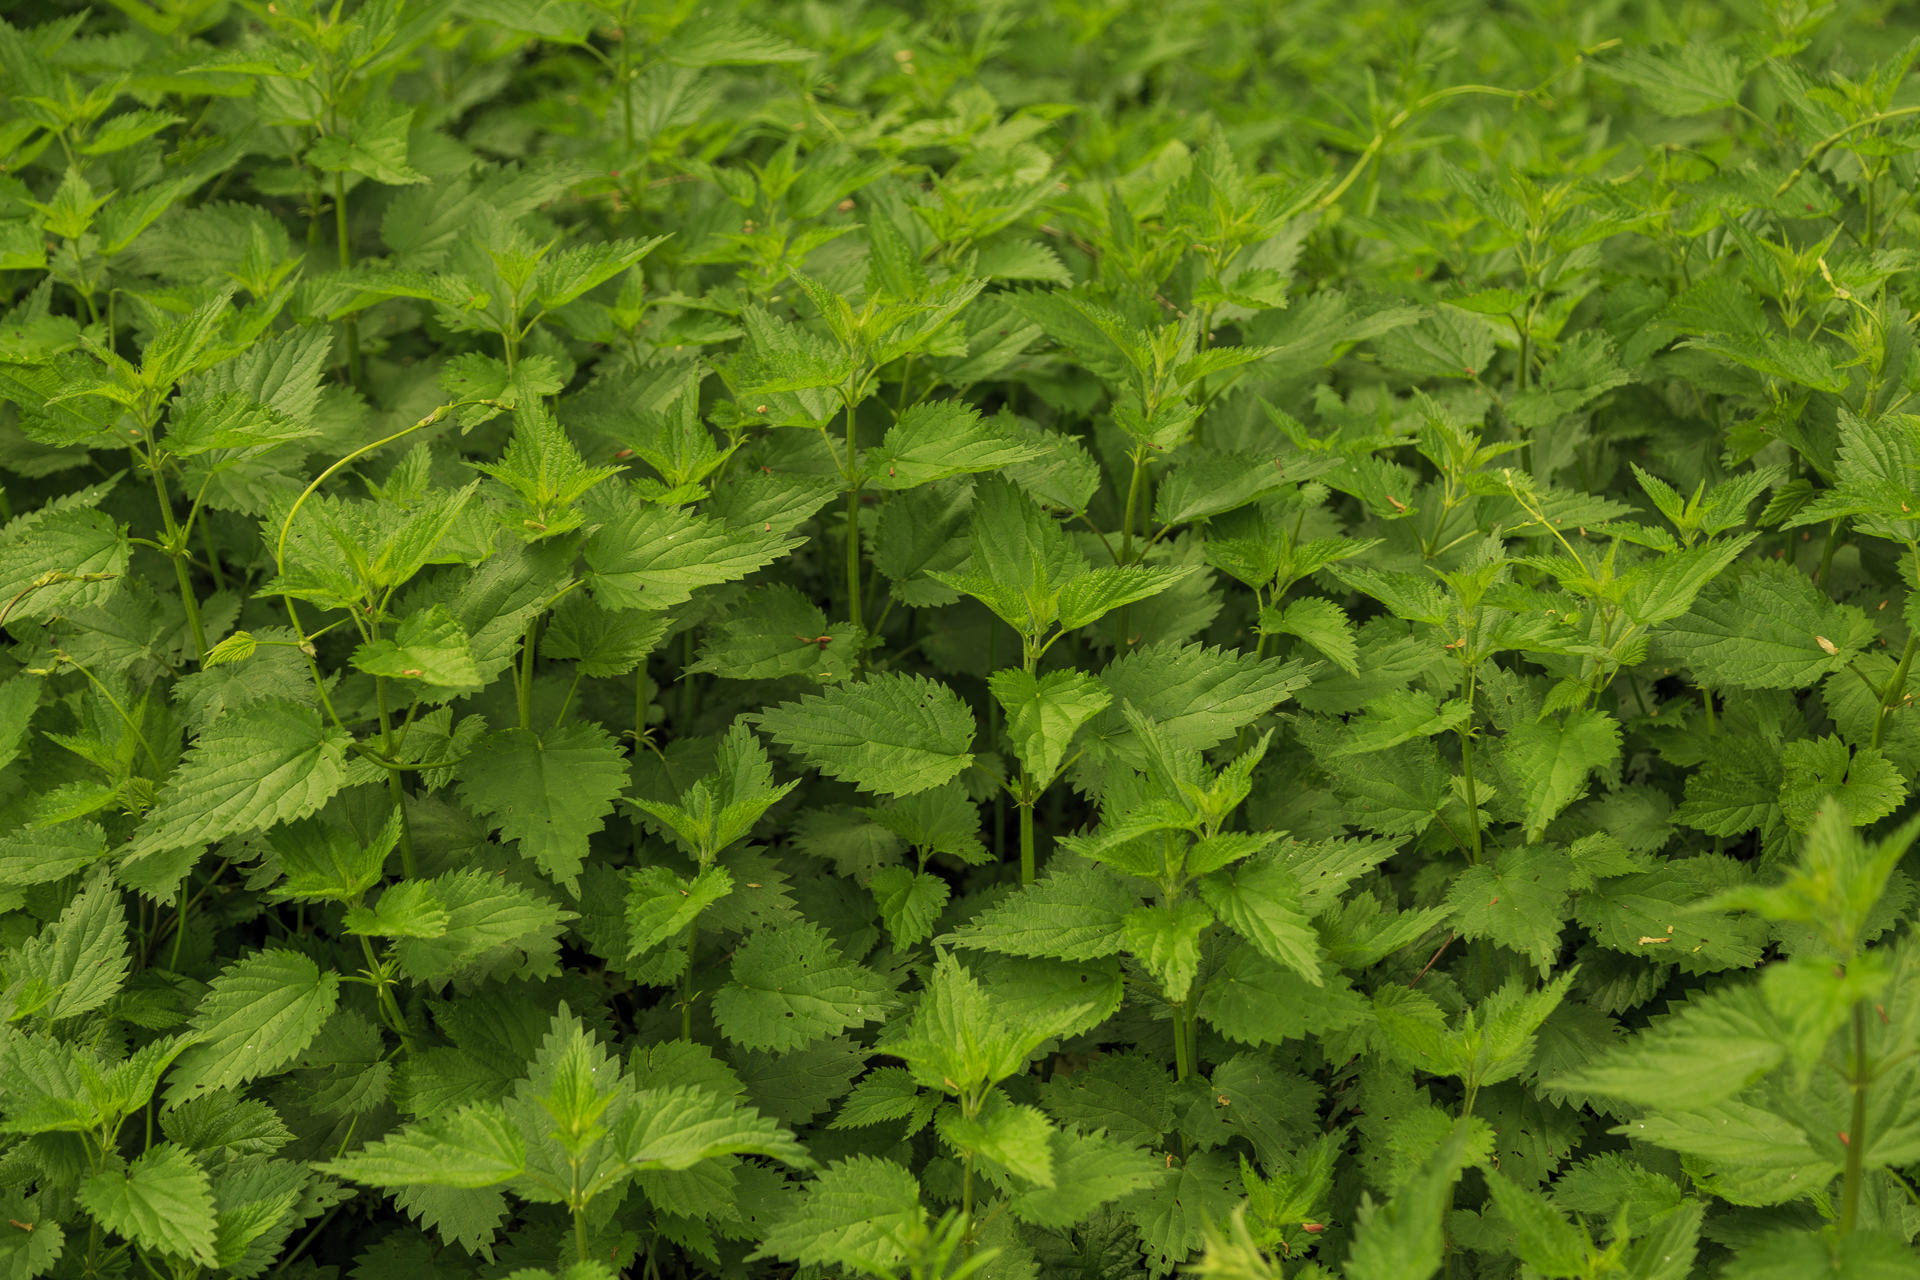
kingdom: Plantae
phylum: Tracheophyta
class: Magnoliopsida
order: Rosales
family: Urticaceae
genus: Urtica
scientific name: Urtica dioica
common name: Common nettle
